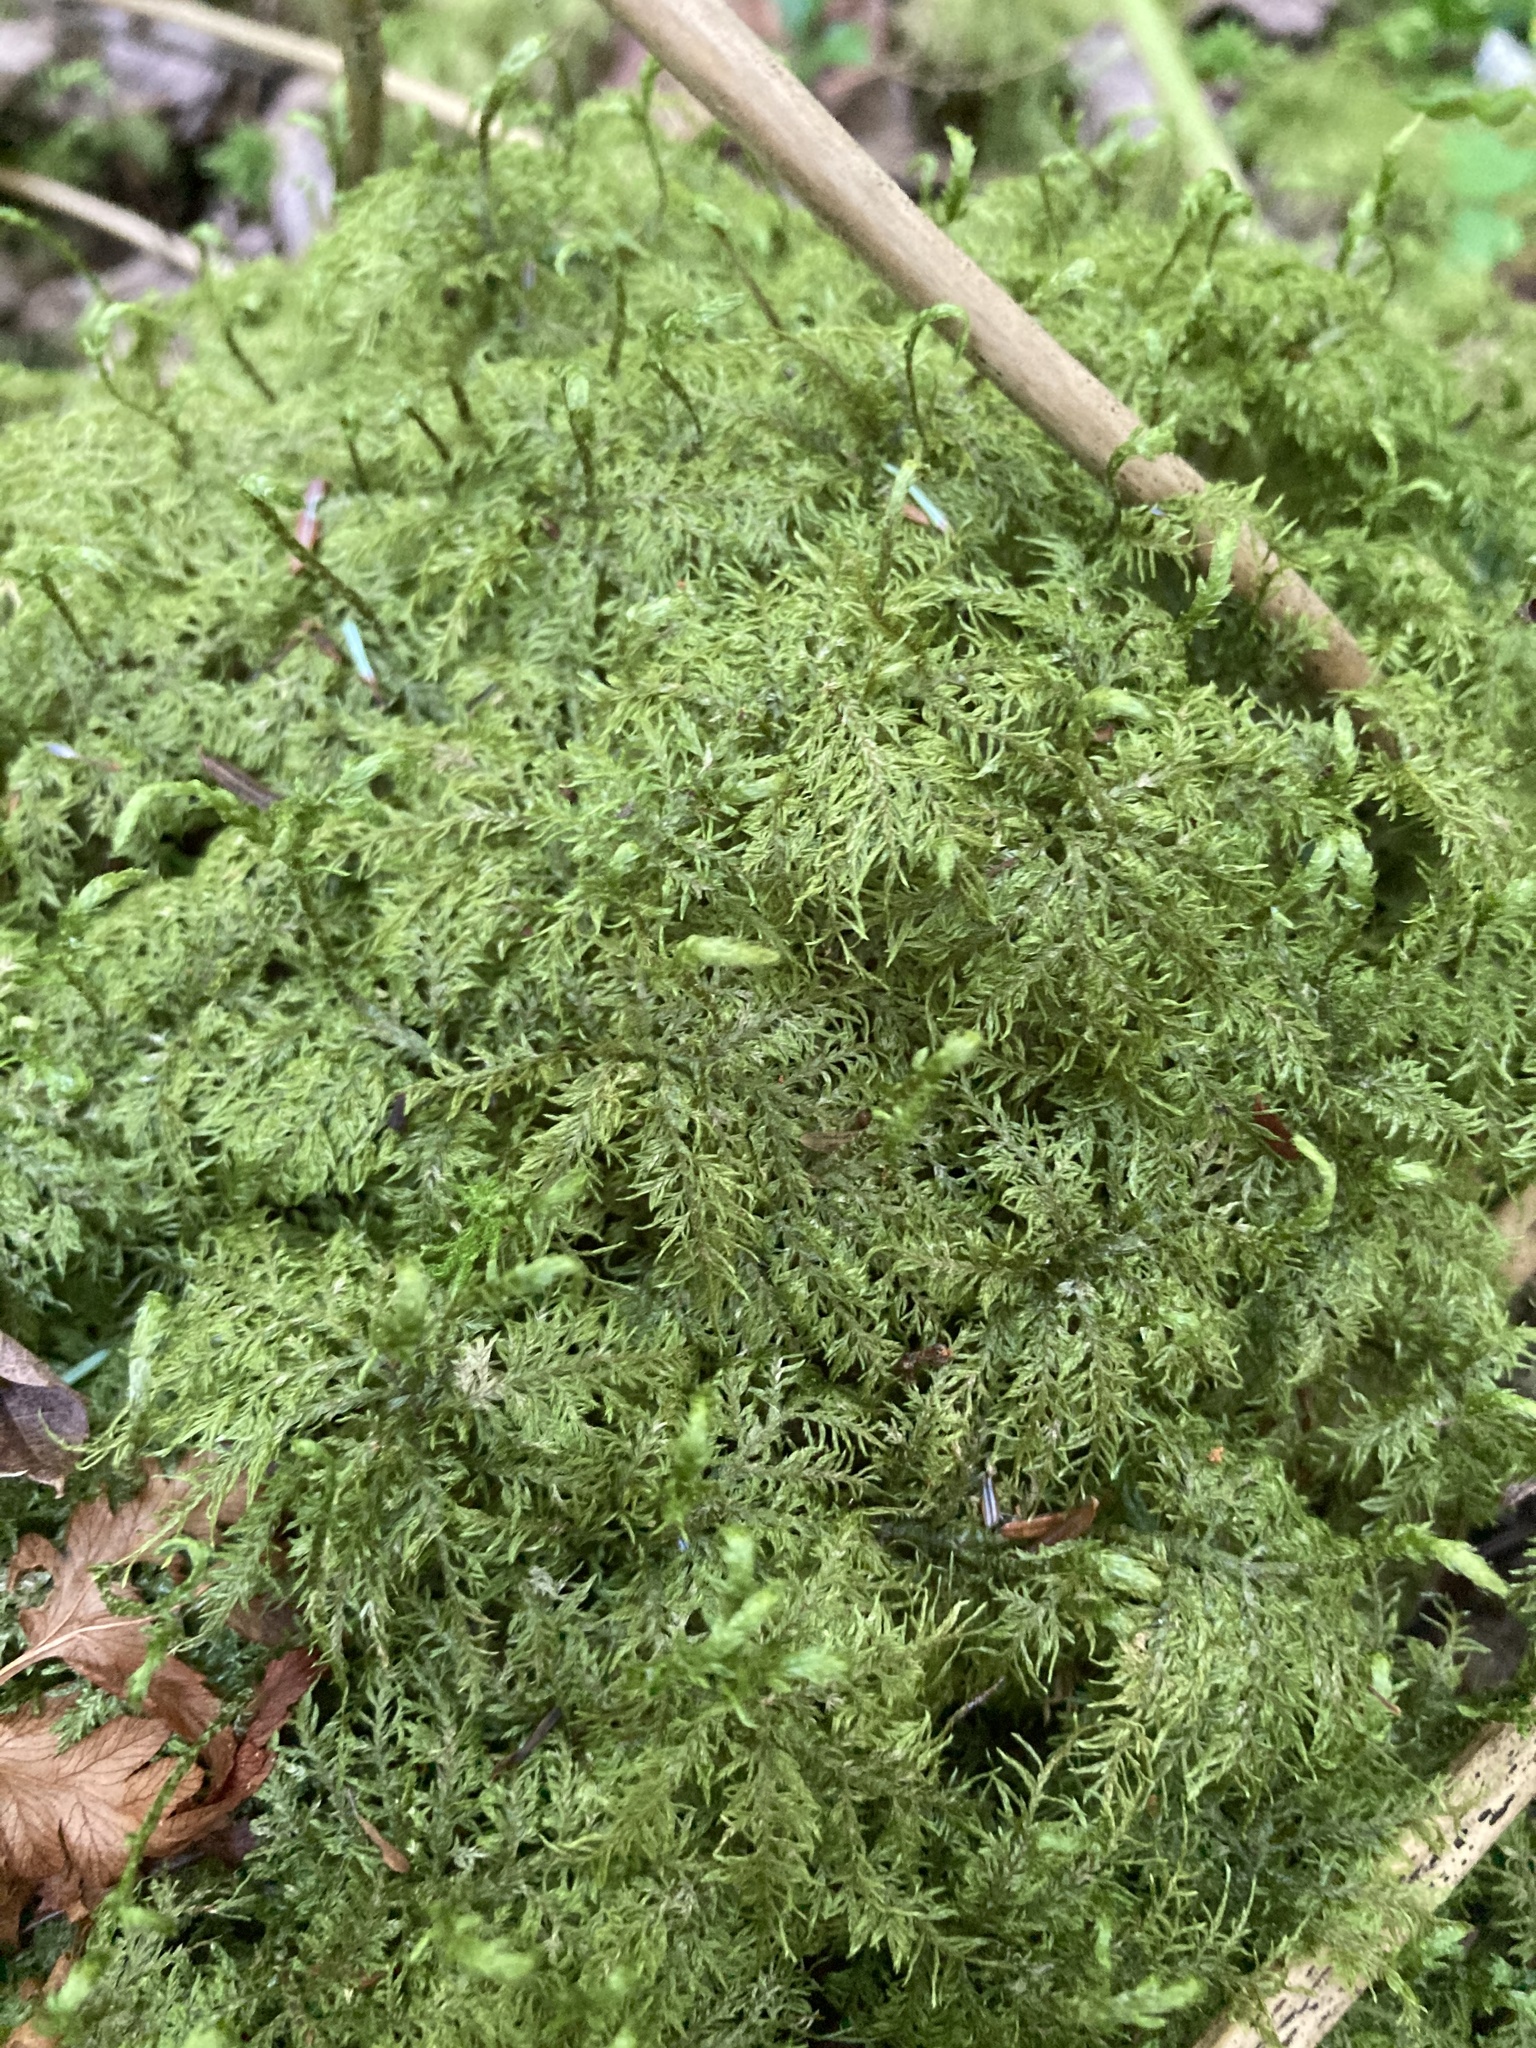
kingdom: Plantae
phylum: Bryophyta
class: Bryopsida
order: Hypnales
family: Hylocomiaceae
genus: Hylocomium
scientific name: Hylocomium splendens
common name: Stairstep moss
